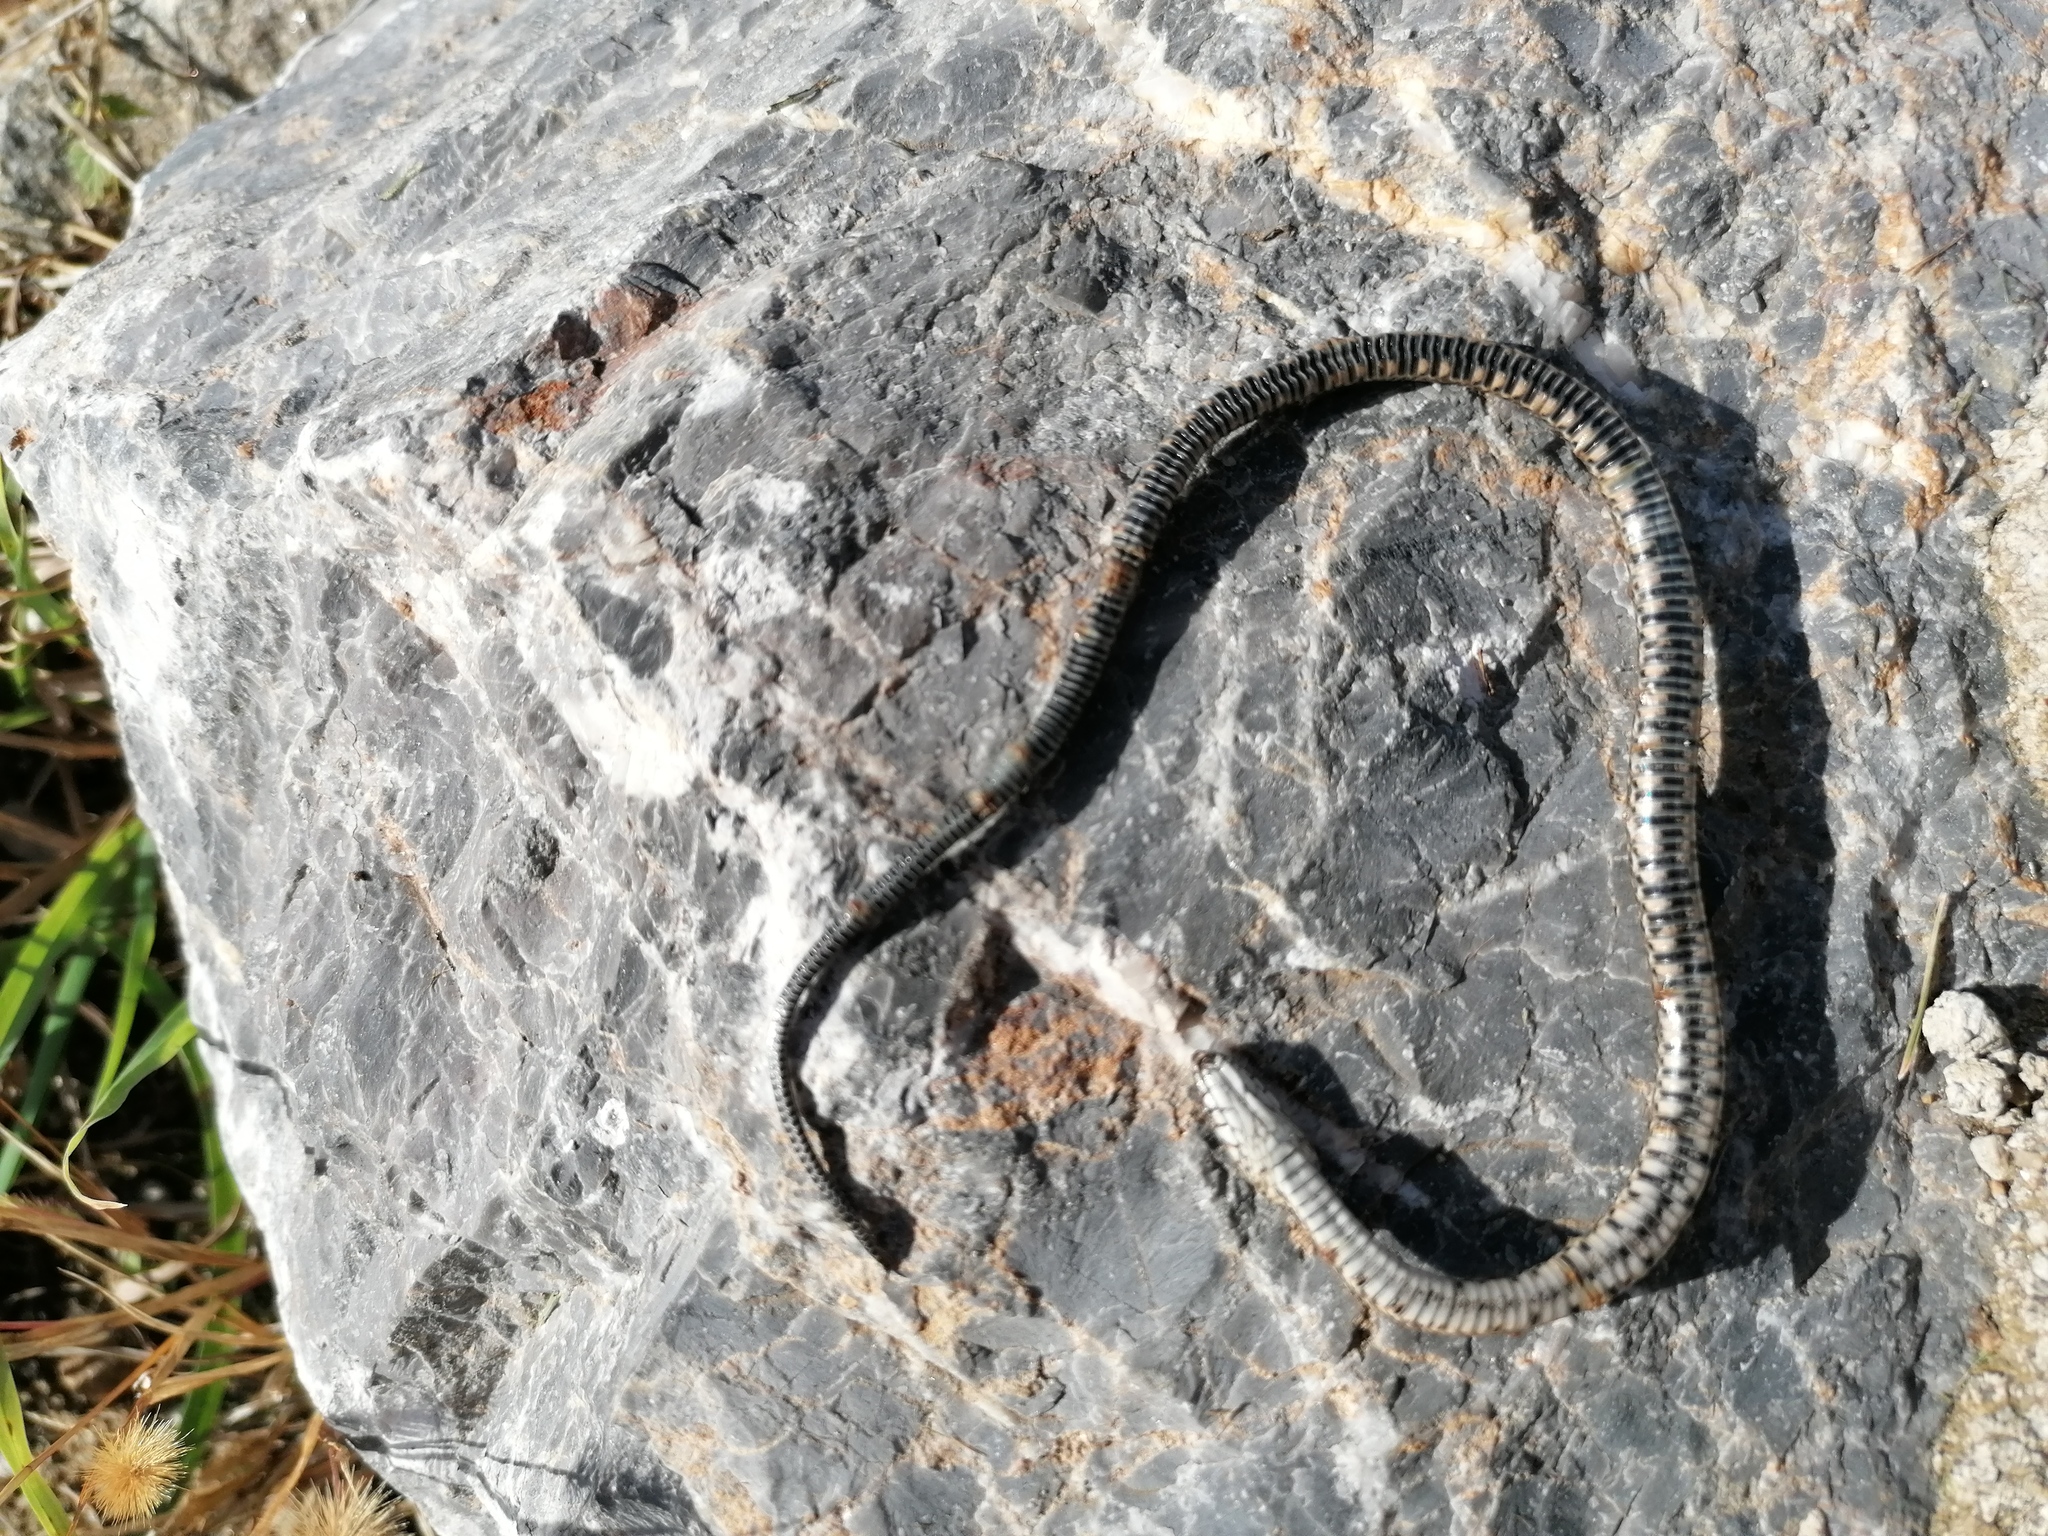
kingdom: Animalia
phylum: Chordata
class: Squamata
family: Colubridae
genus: Natrix
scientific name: Natrix tessellata
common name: Dice snake
